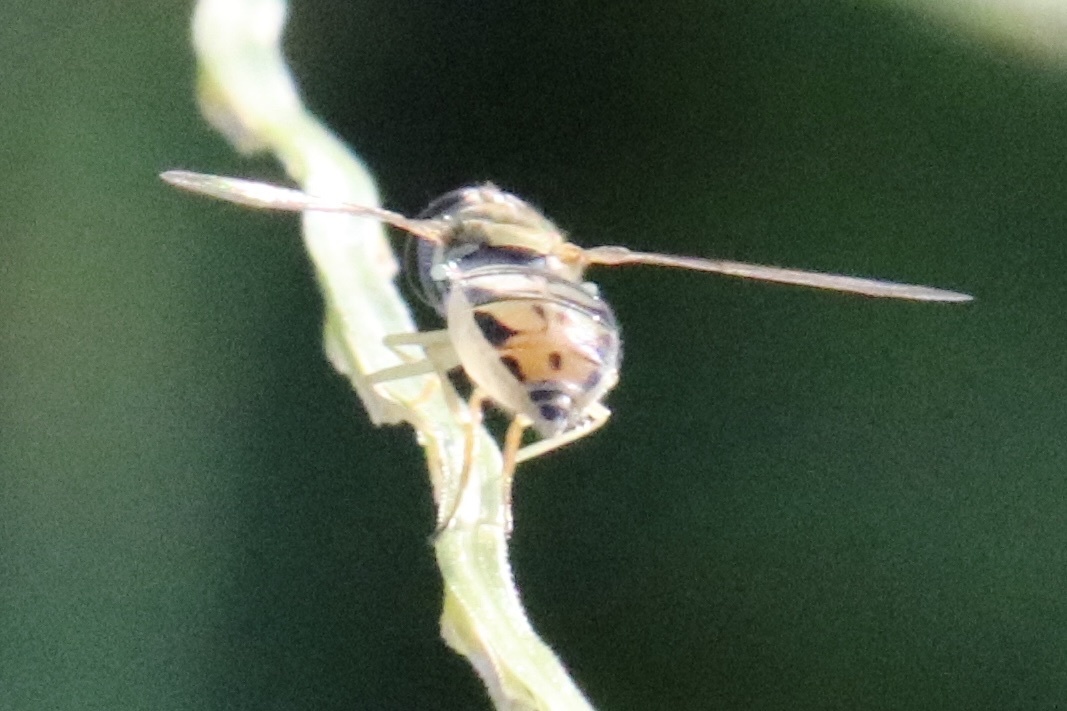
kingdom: Animalia
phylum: Arthropoda
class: Insecta
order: Diptera
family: Syrphidae
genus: Toxomerus
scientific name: Toxomerus marginatus
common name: Syrphid fly
